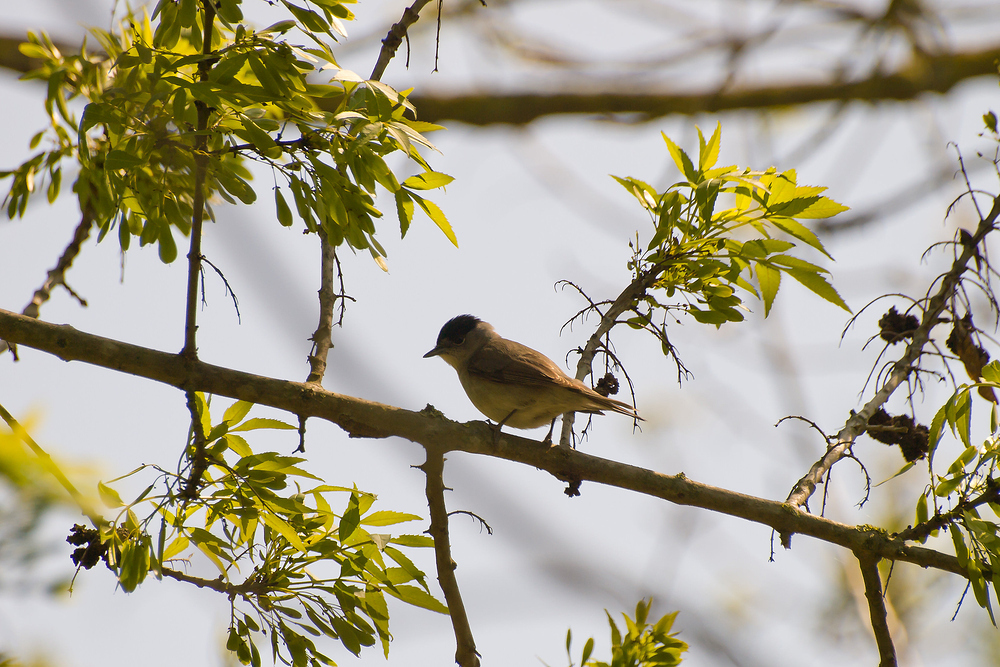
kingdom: Animalia
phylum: Chordata
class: Aves
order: Passeriformes
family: Sylviidae
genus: Sylvia
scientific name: Sylvia atricapilla
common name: Eurasian blackcap
